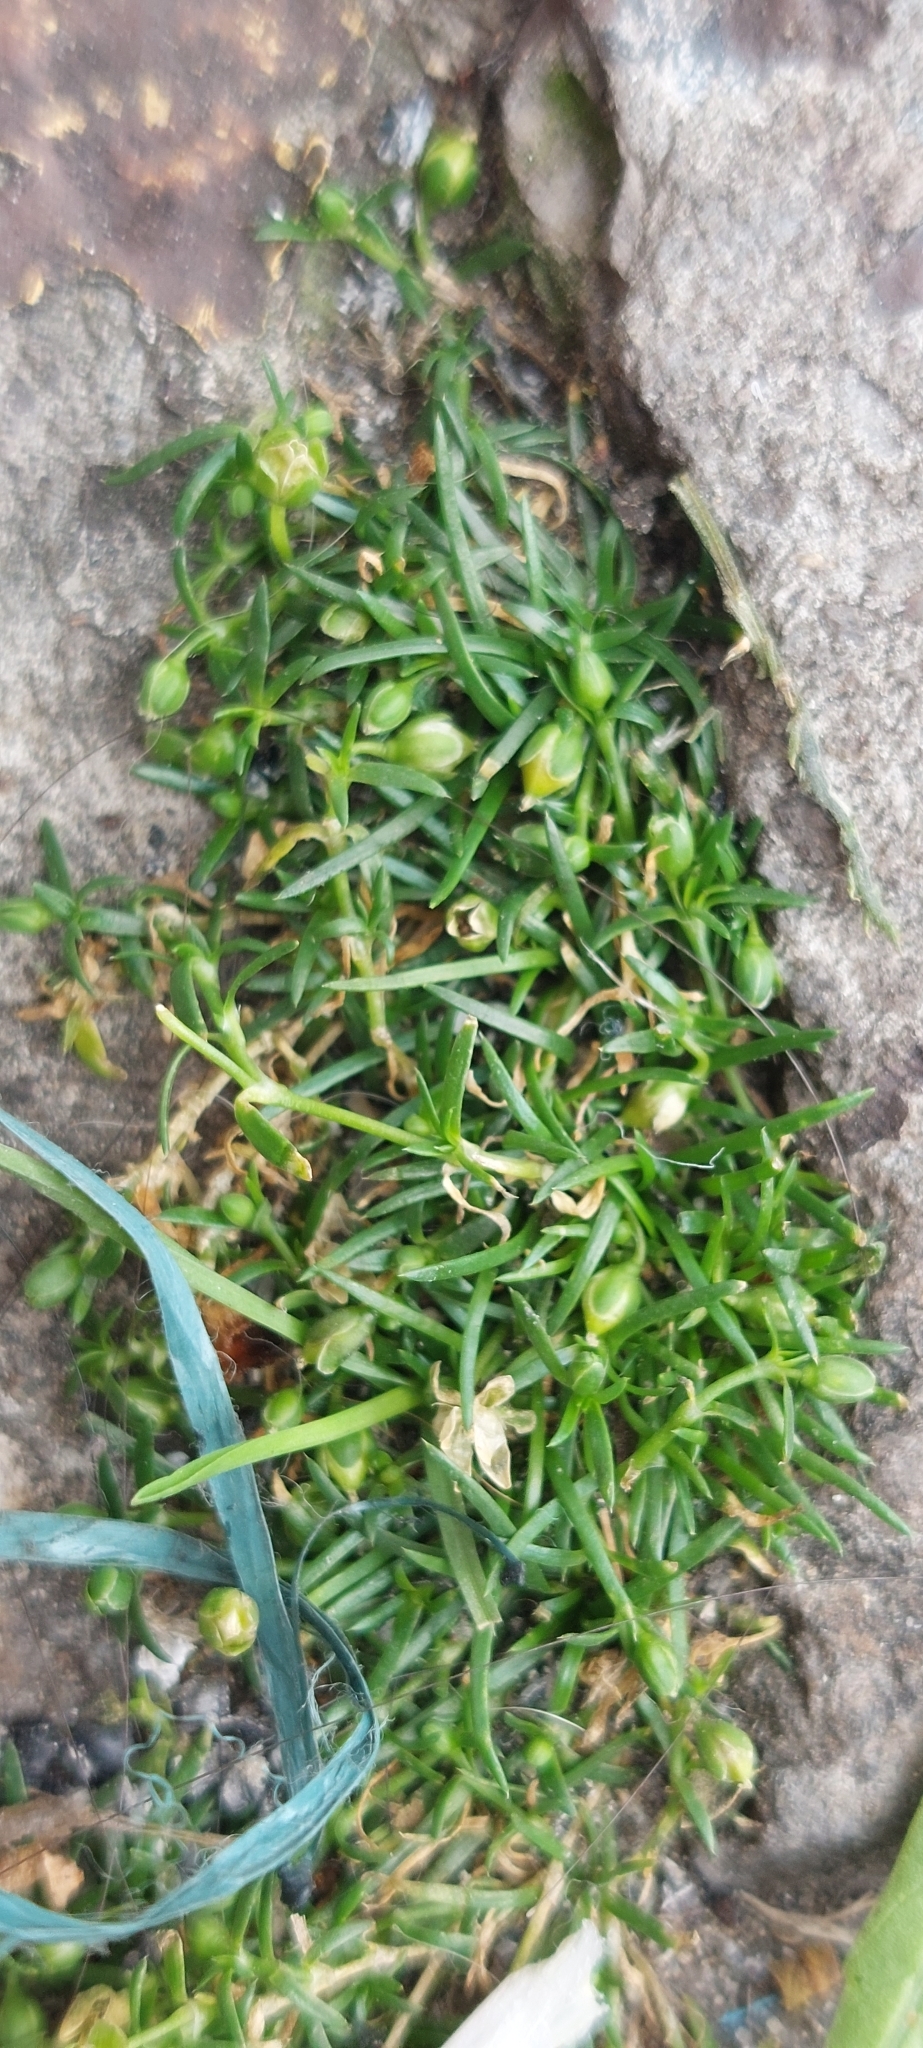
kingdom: Plantae
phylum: Tracheophyta
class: Magnoliopsida
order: Caryophyllales
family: Caryophyllaceae
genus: Sagina
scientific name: Sagina procumbens
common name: Procumbent pearlwort
